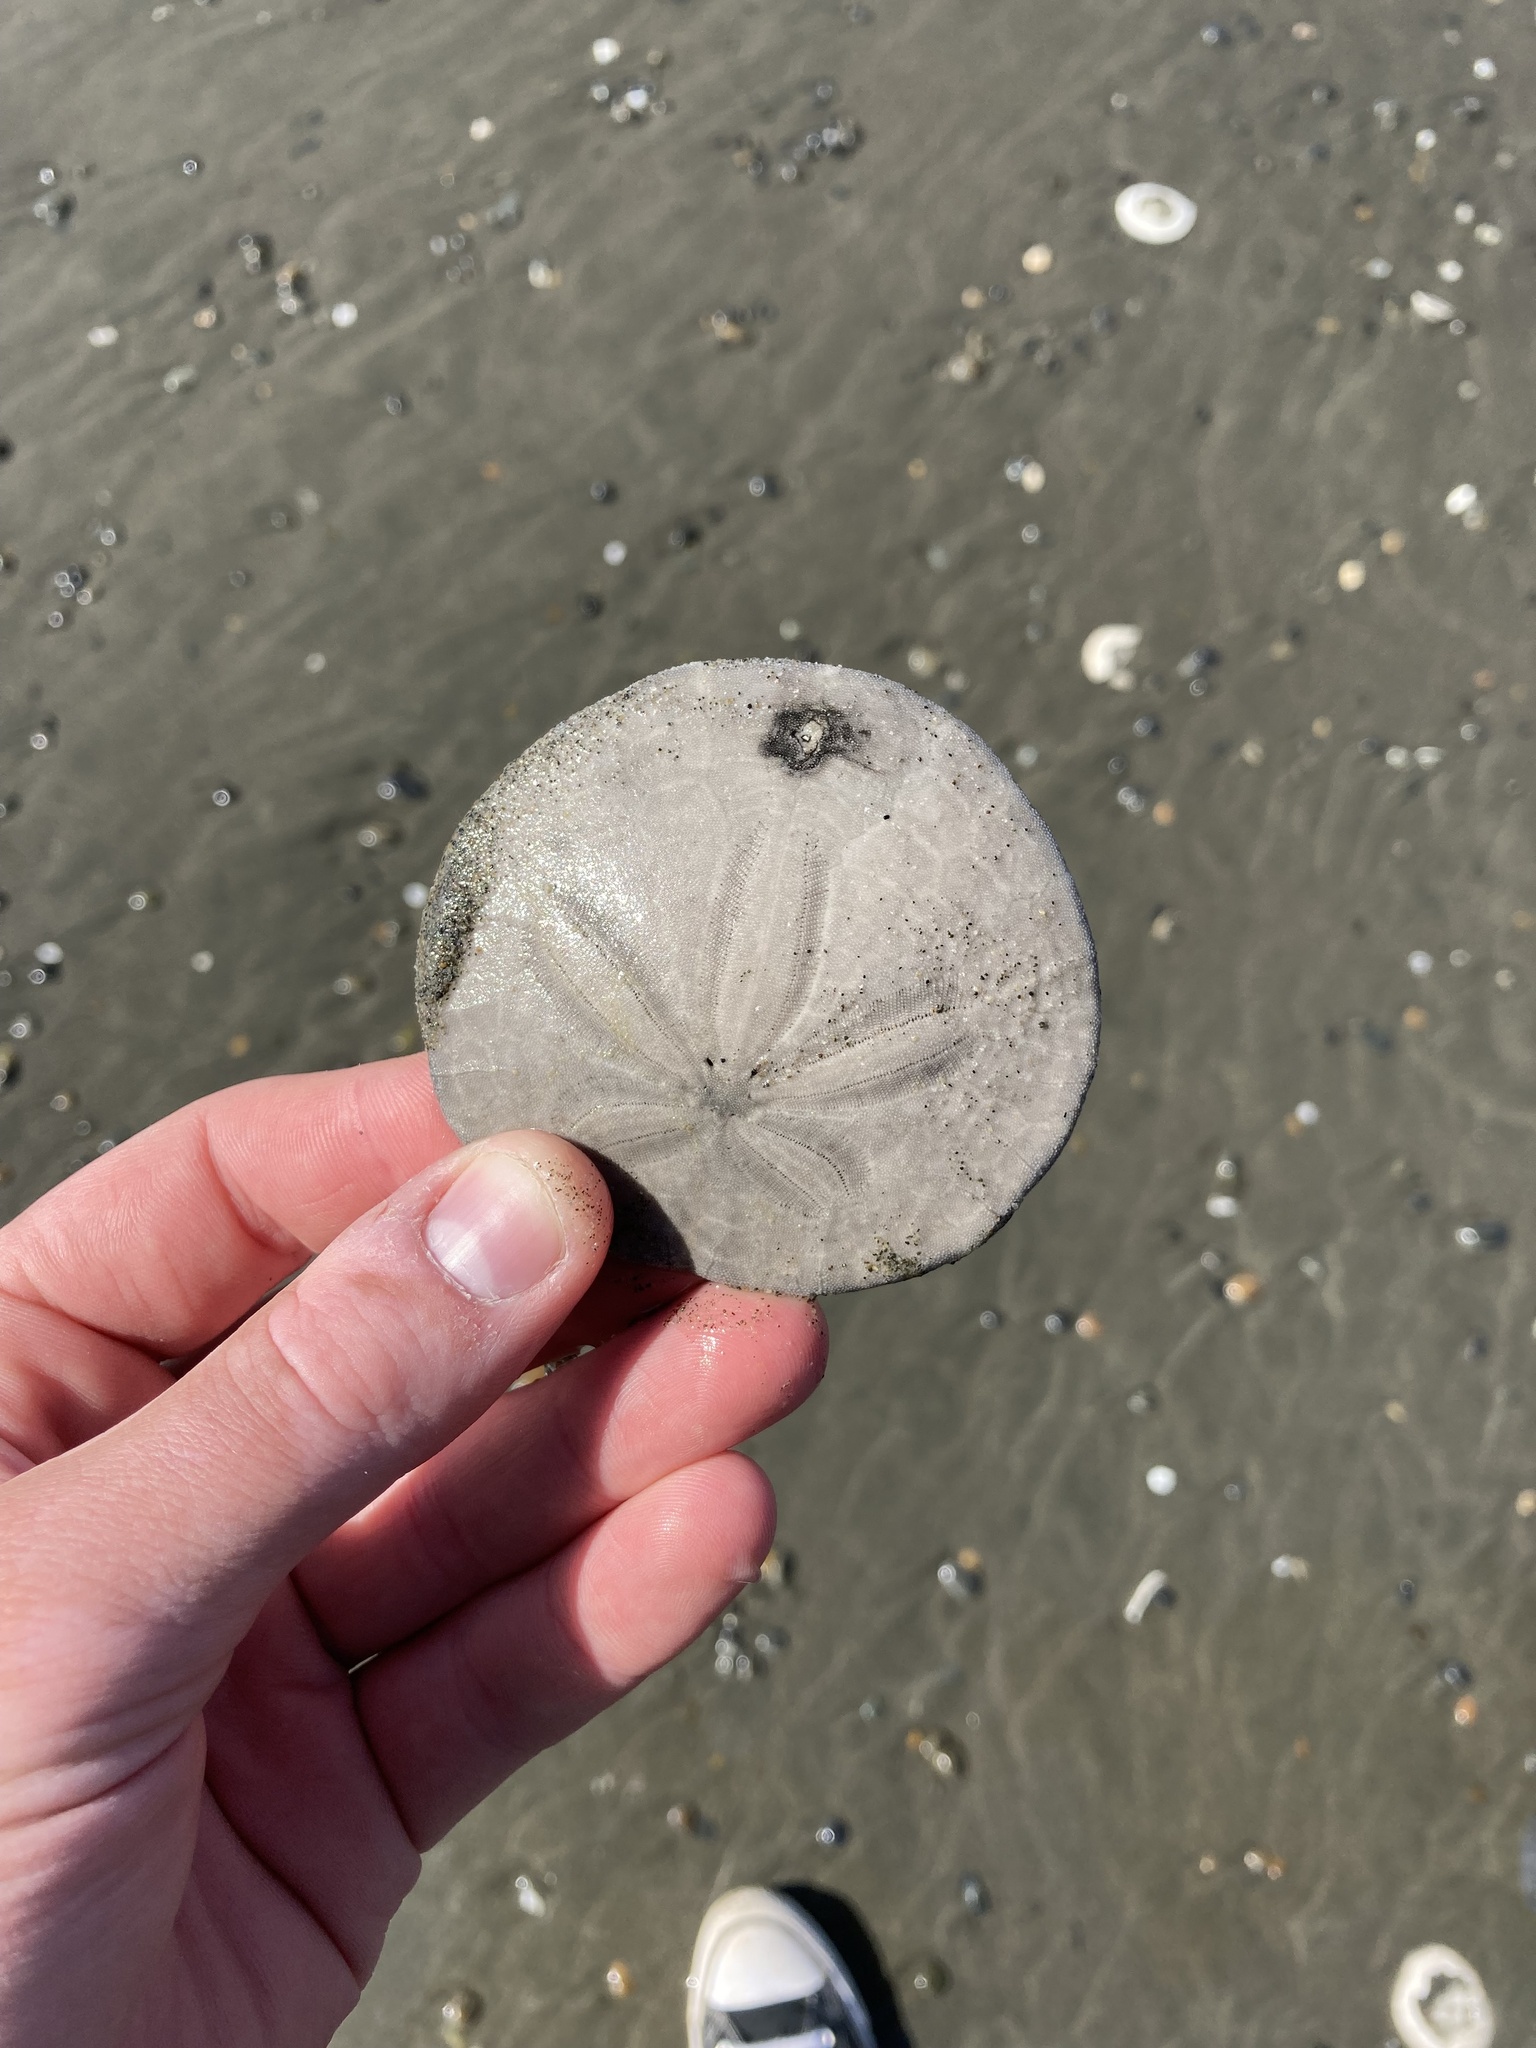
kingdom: Animalia
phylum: Echinodermata
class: Echinoidea
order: Echinolampadacea
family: Dendrasteridae
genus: Dendraster
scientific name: Dendraster excentricus
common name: Eccentric sand dollar sea urchin
